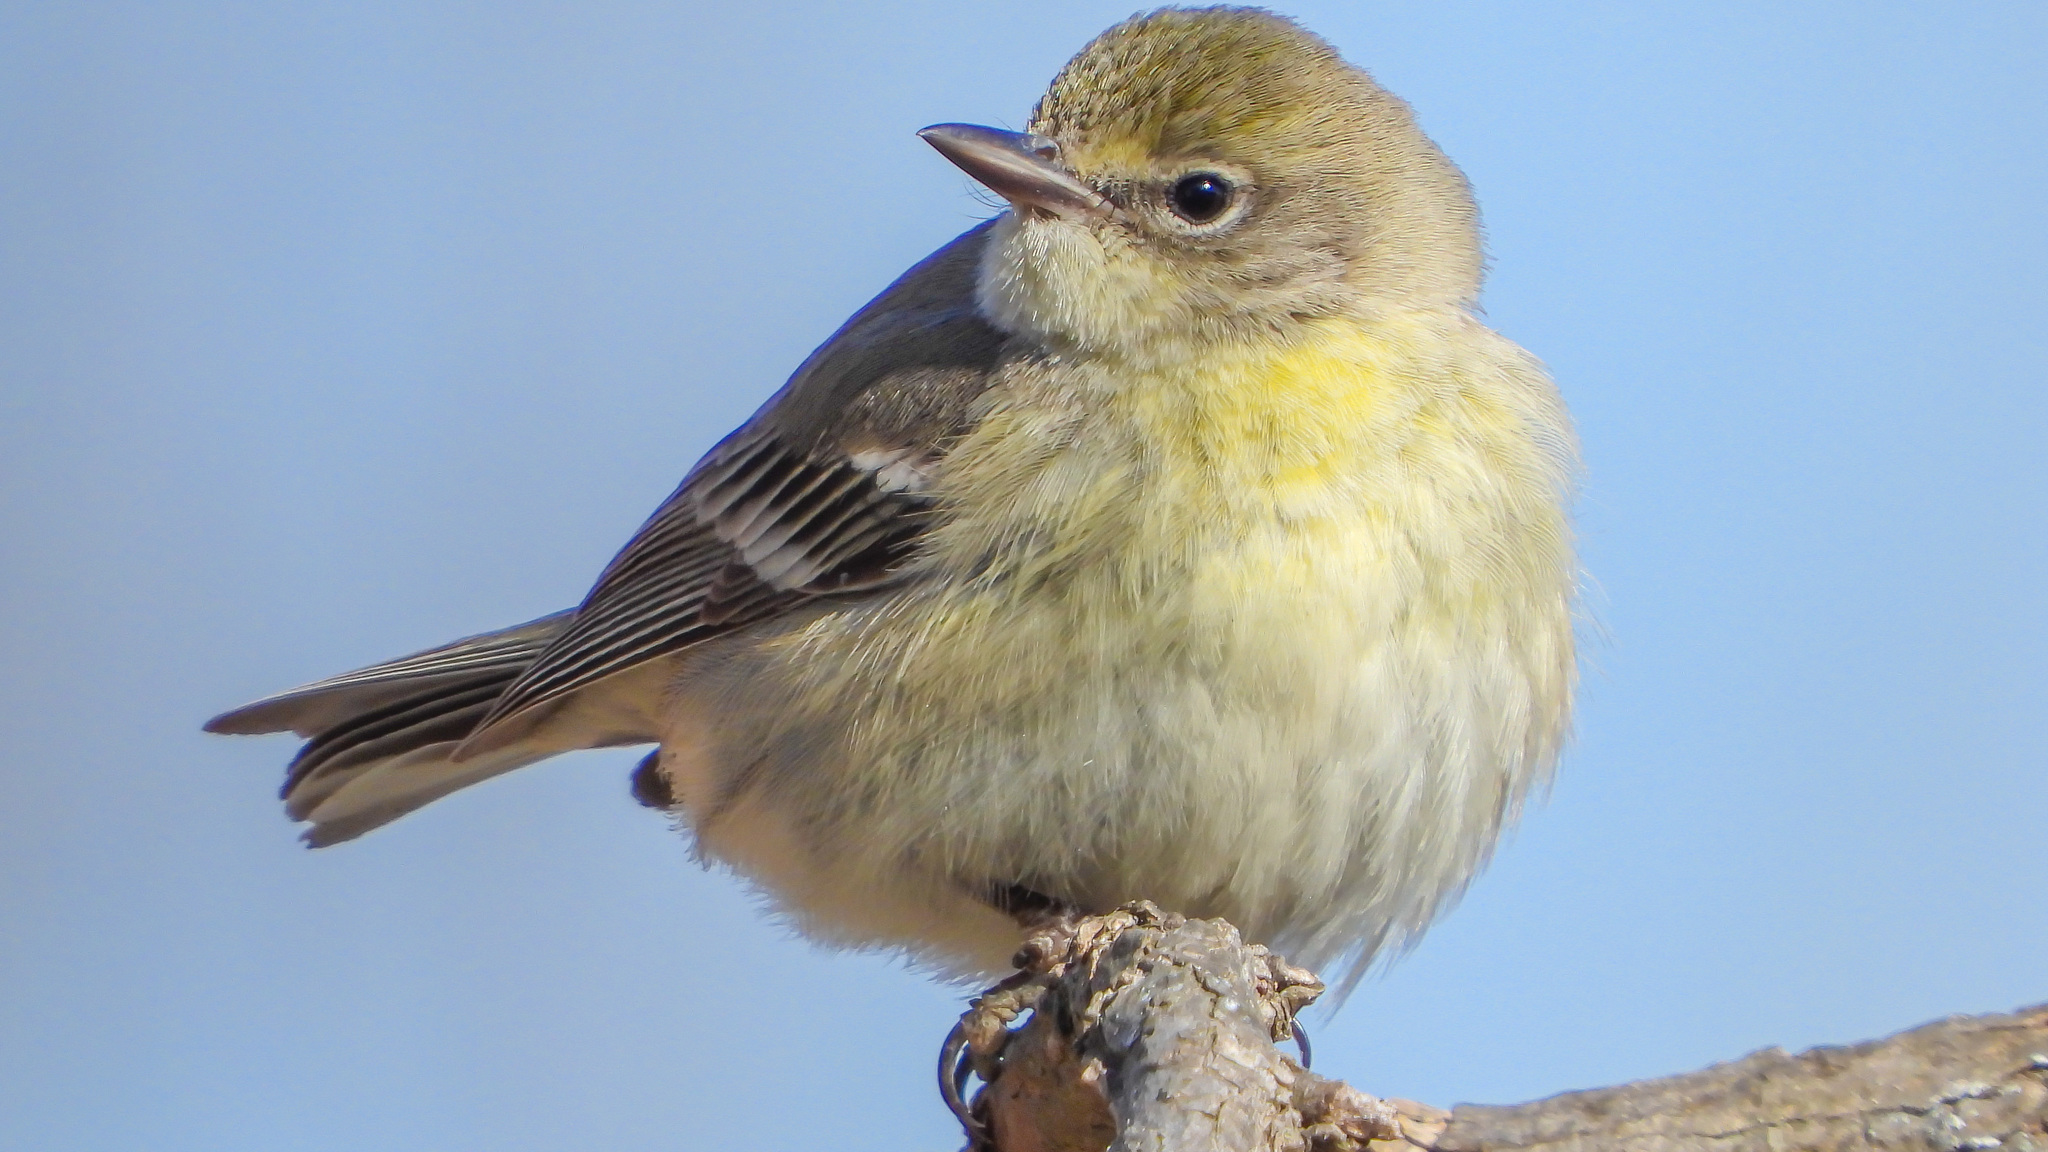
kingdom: Animalia
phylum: Chordata
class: Aves
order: Passeriformes
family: Parulidae
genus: Setophaga
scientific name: Setophaga pinus
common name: Pine warbler
